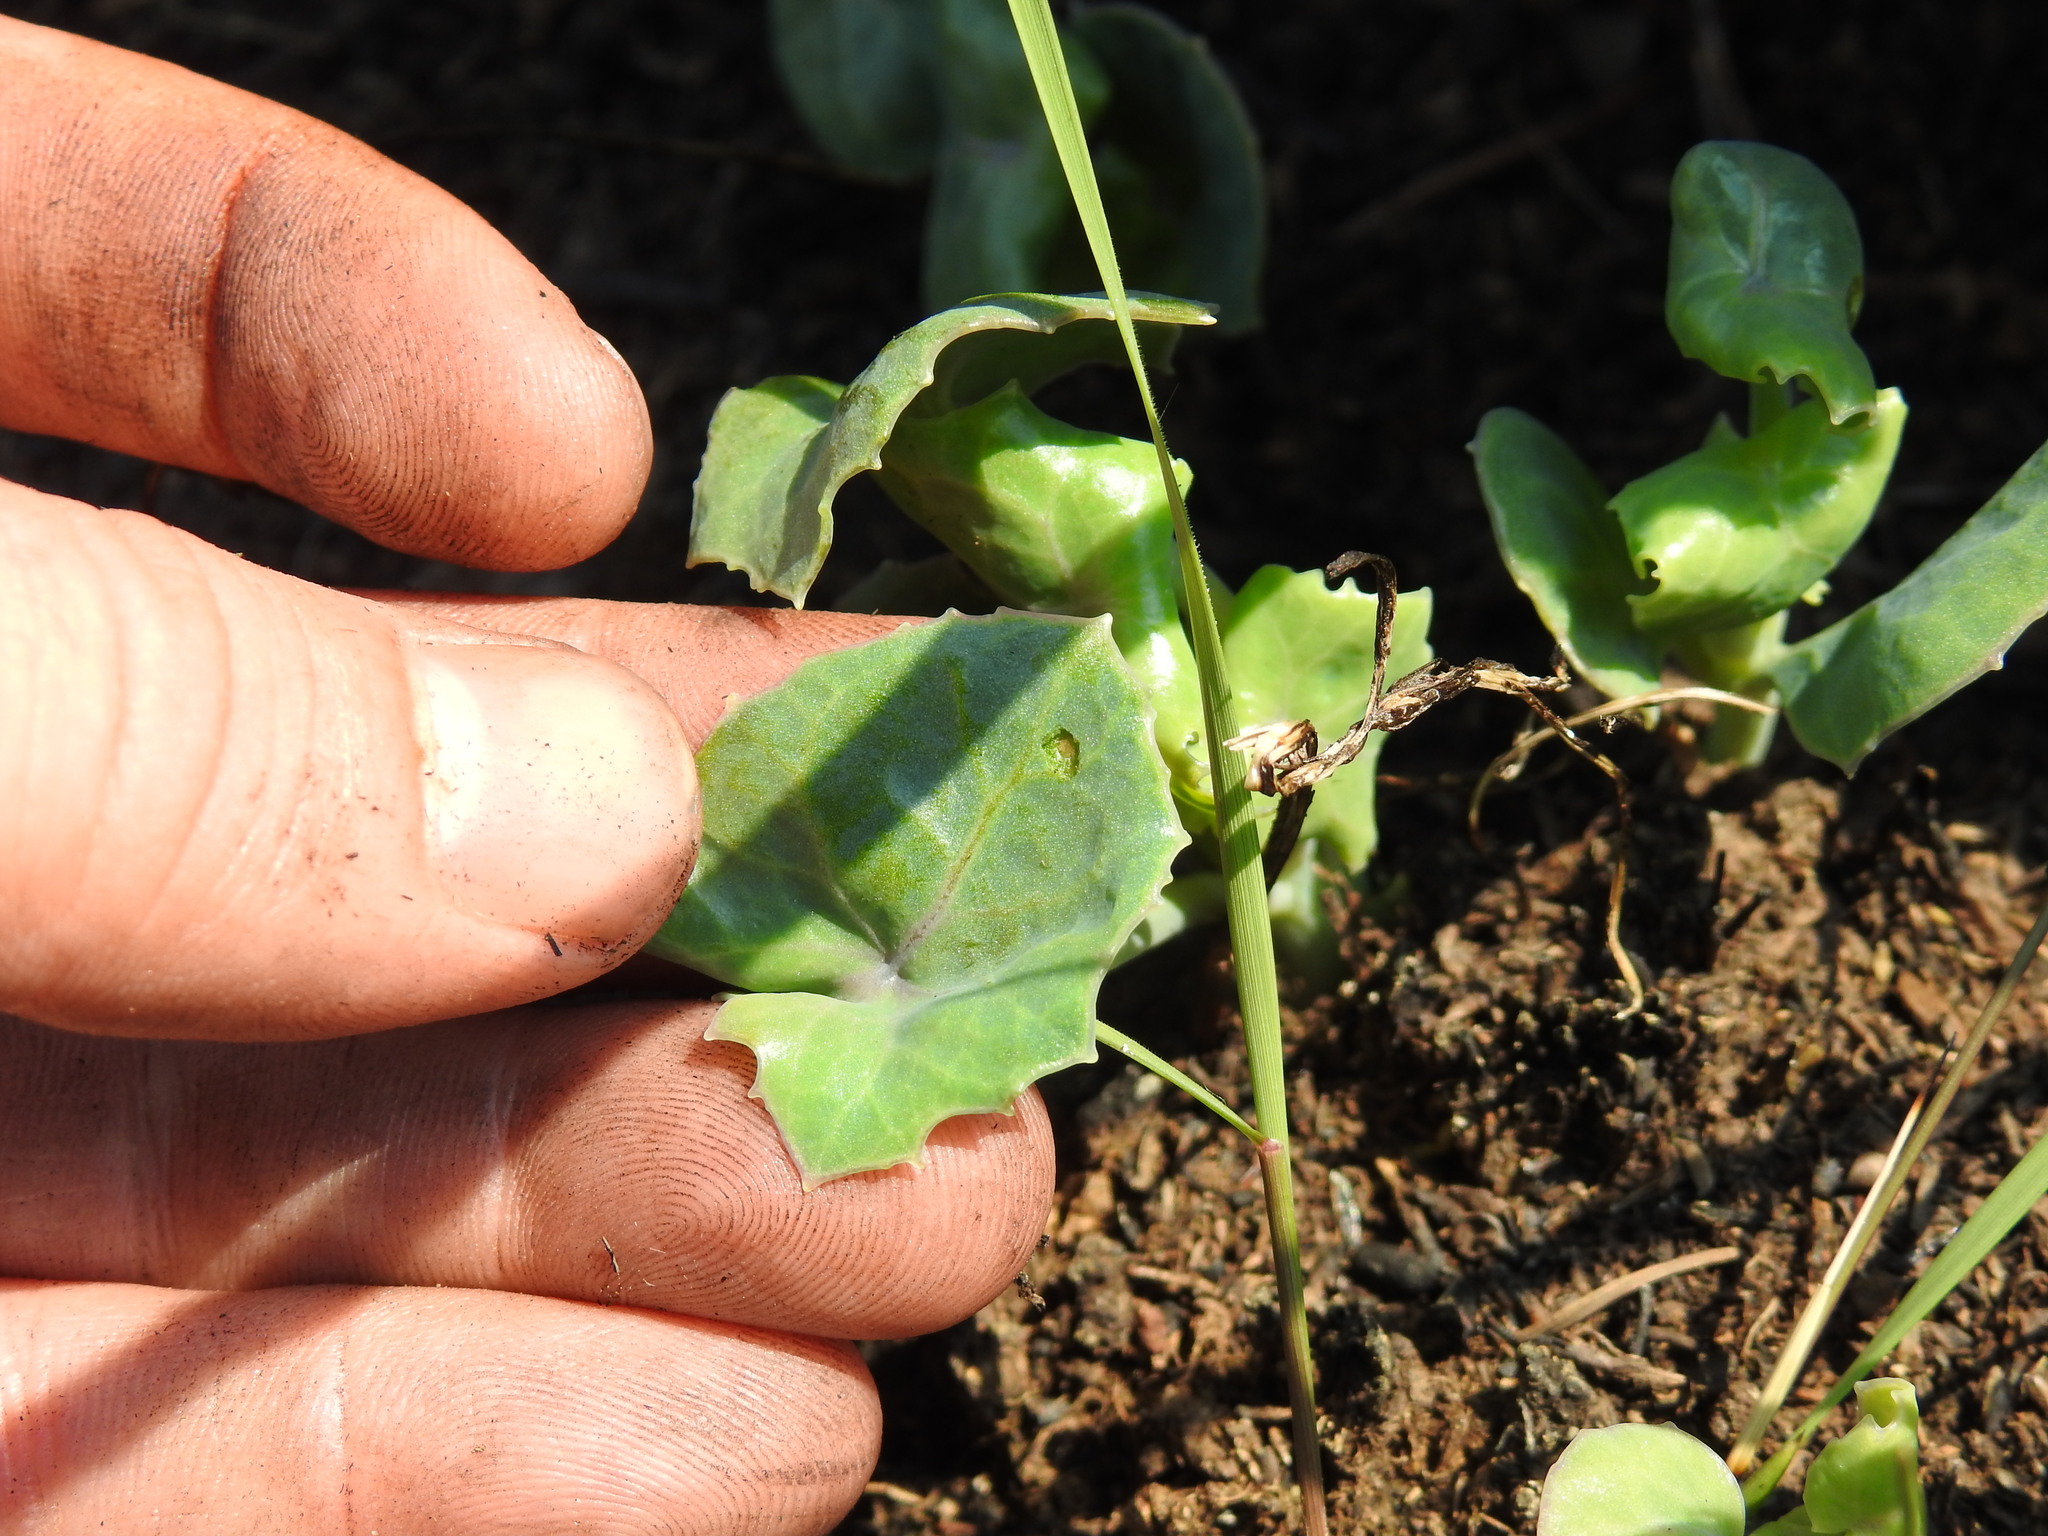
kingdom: Plantae
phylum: Tracheophyta
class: Magnoliopsida
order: Asterales
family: Asteraceae
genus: Senecio
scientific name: Senecio oxyriifolius
